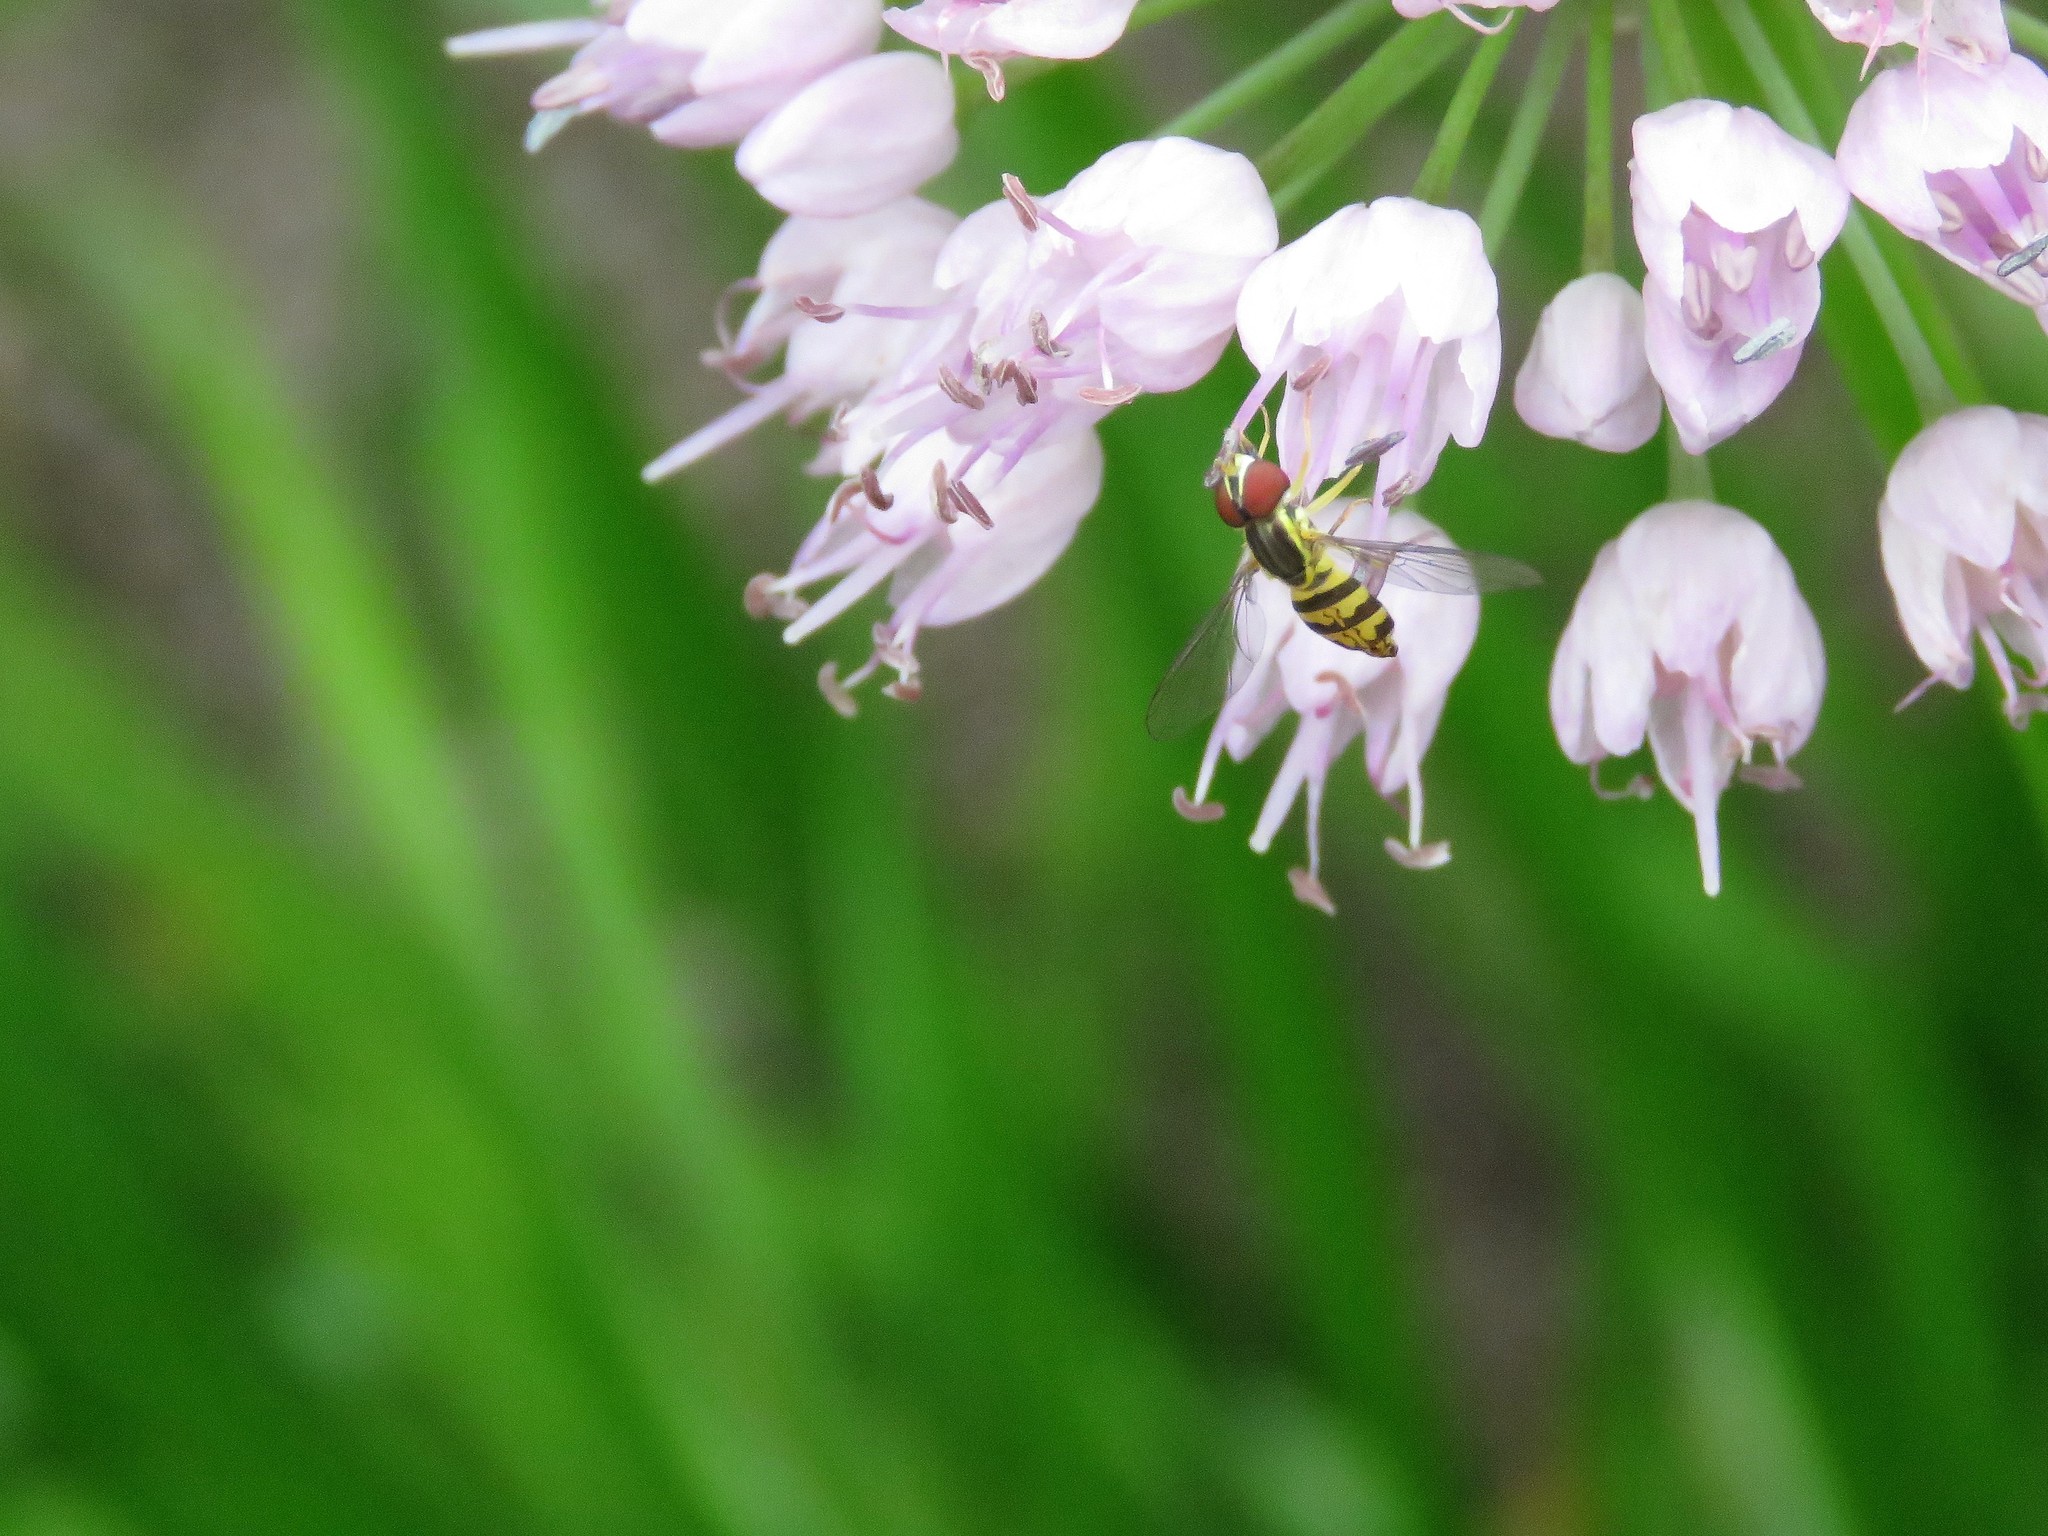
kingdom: Animalia
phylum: Arthropoda
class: Insecta
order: Diptera
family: Syrphidae
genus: Toxomerus
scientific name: Toxomerus geminatus
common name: Eastern calligrapher
